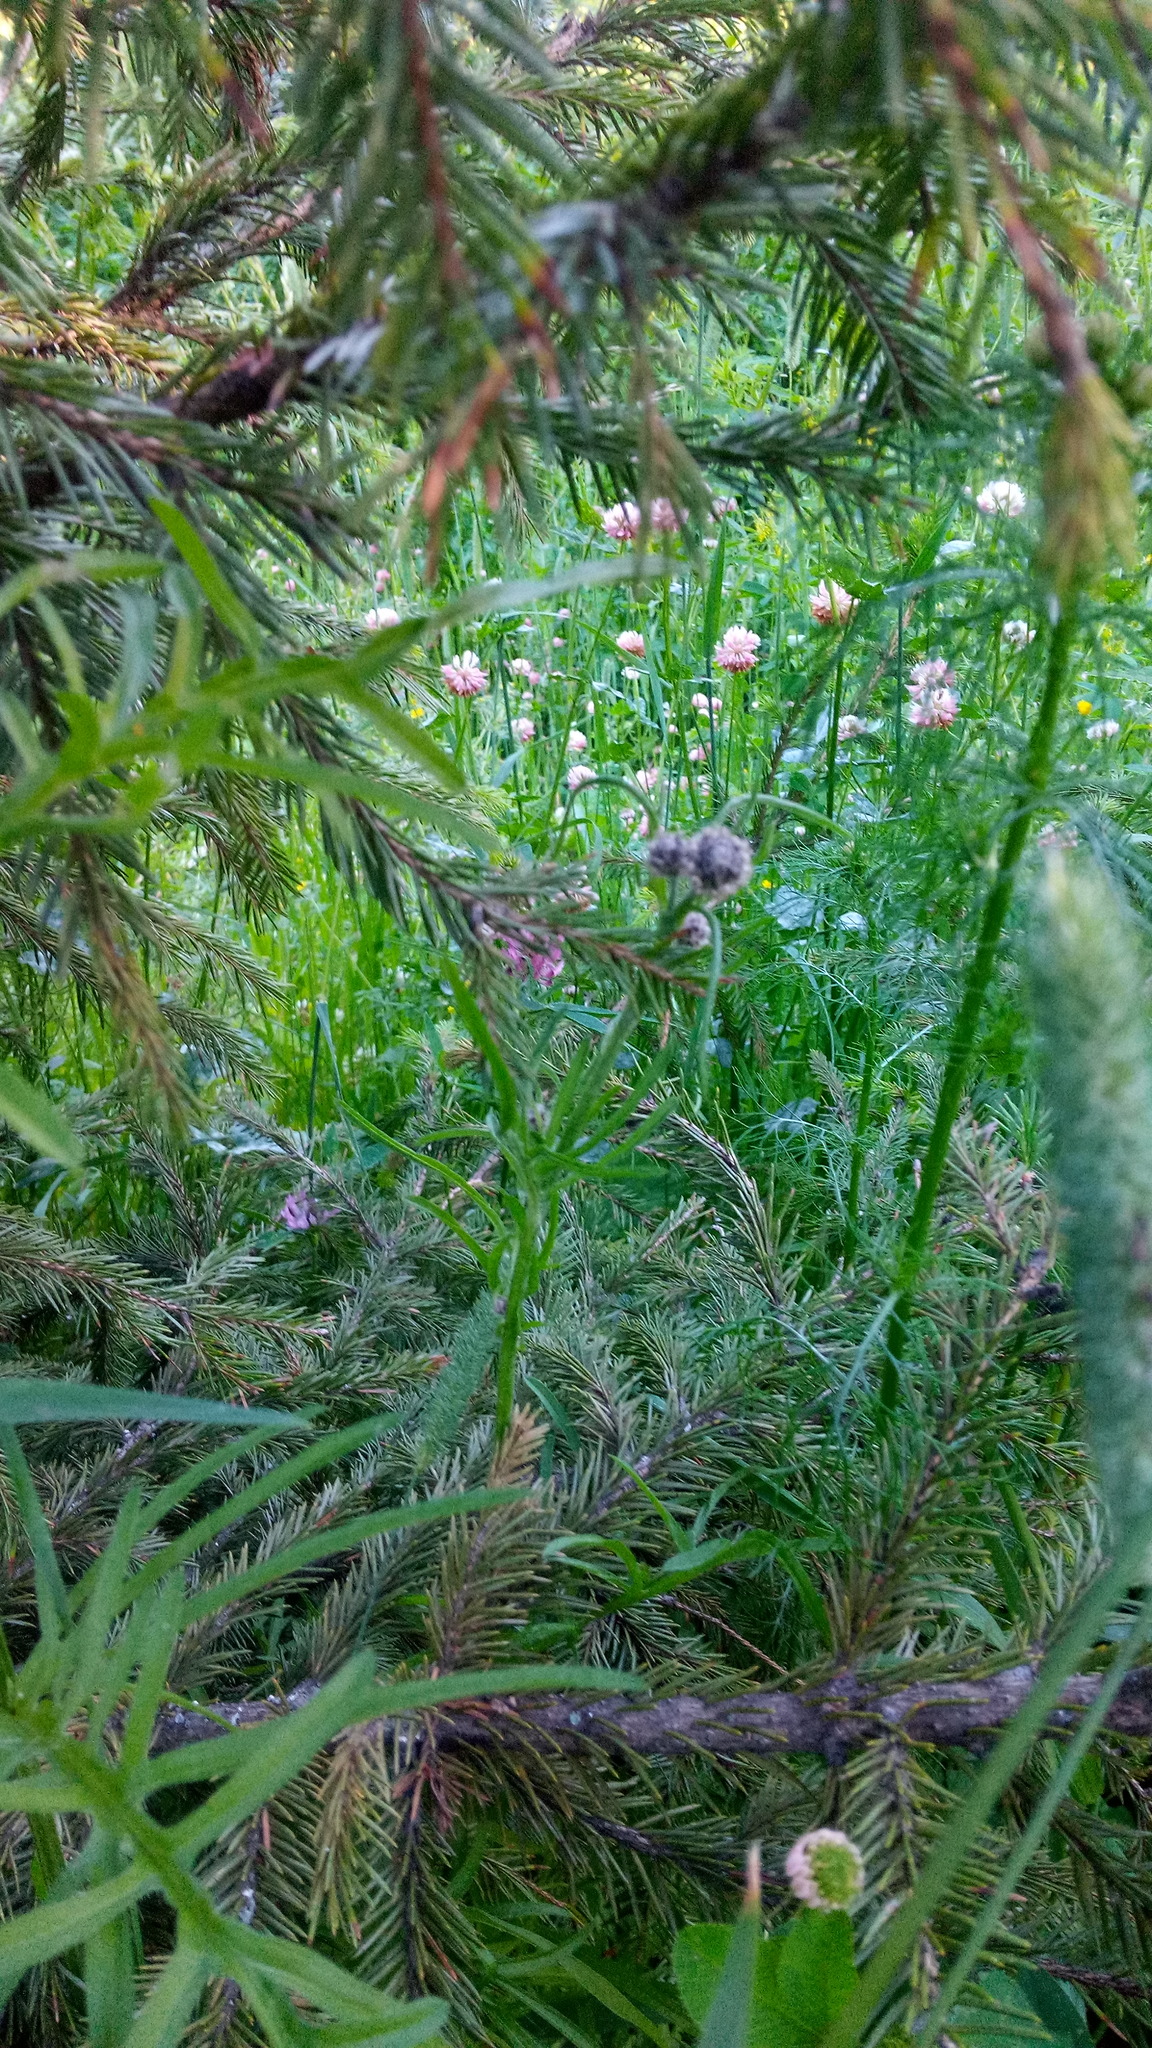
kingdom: Plantae
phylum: Tracheophyta
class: Magnoliopsida
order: Asterales
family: Asteraceae
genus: Centaurea
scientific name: Centaurea scabiosa
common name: Greater knapweed
